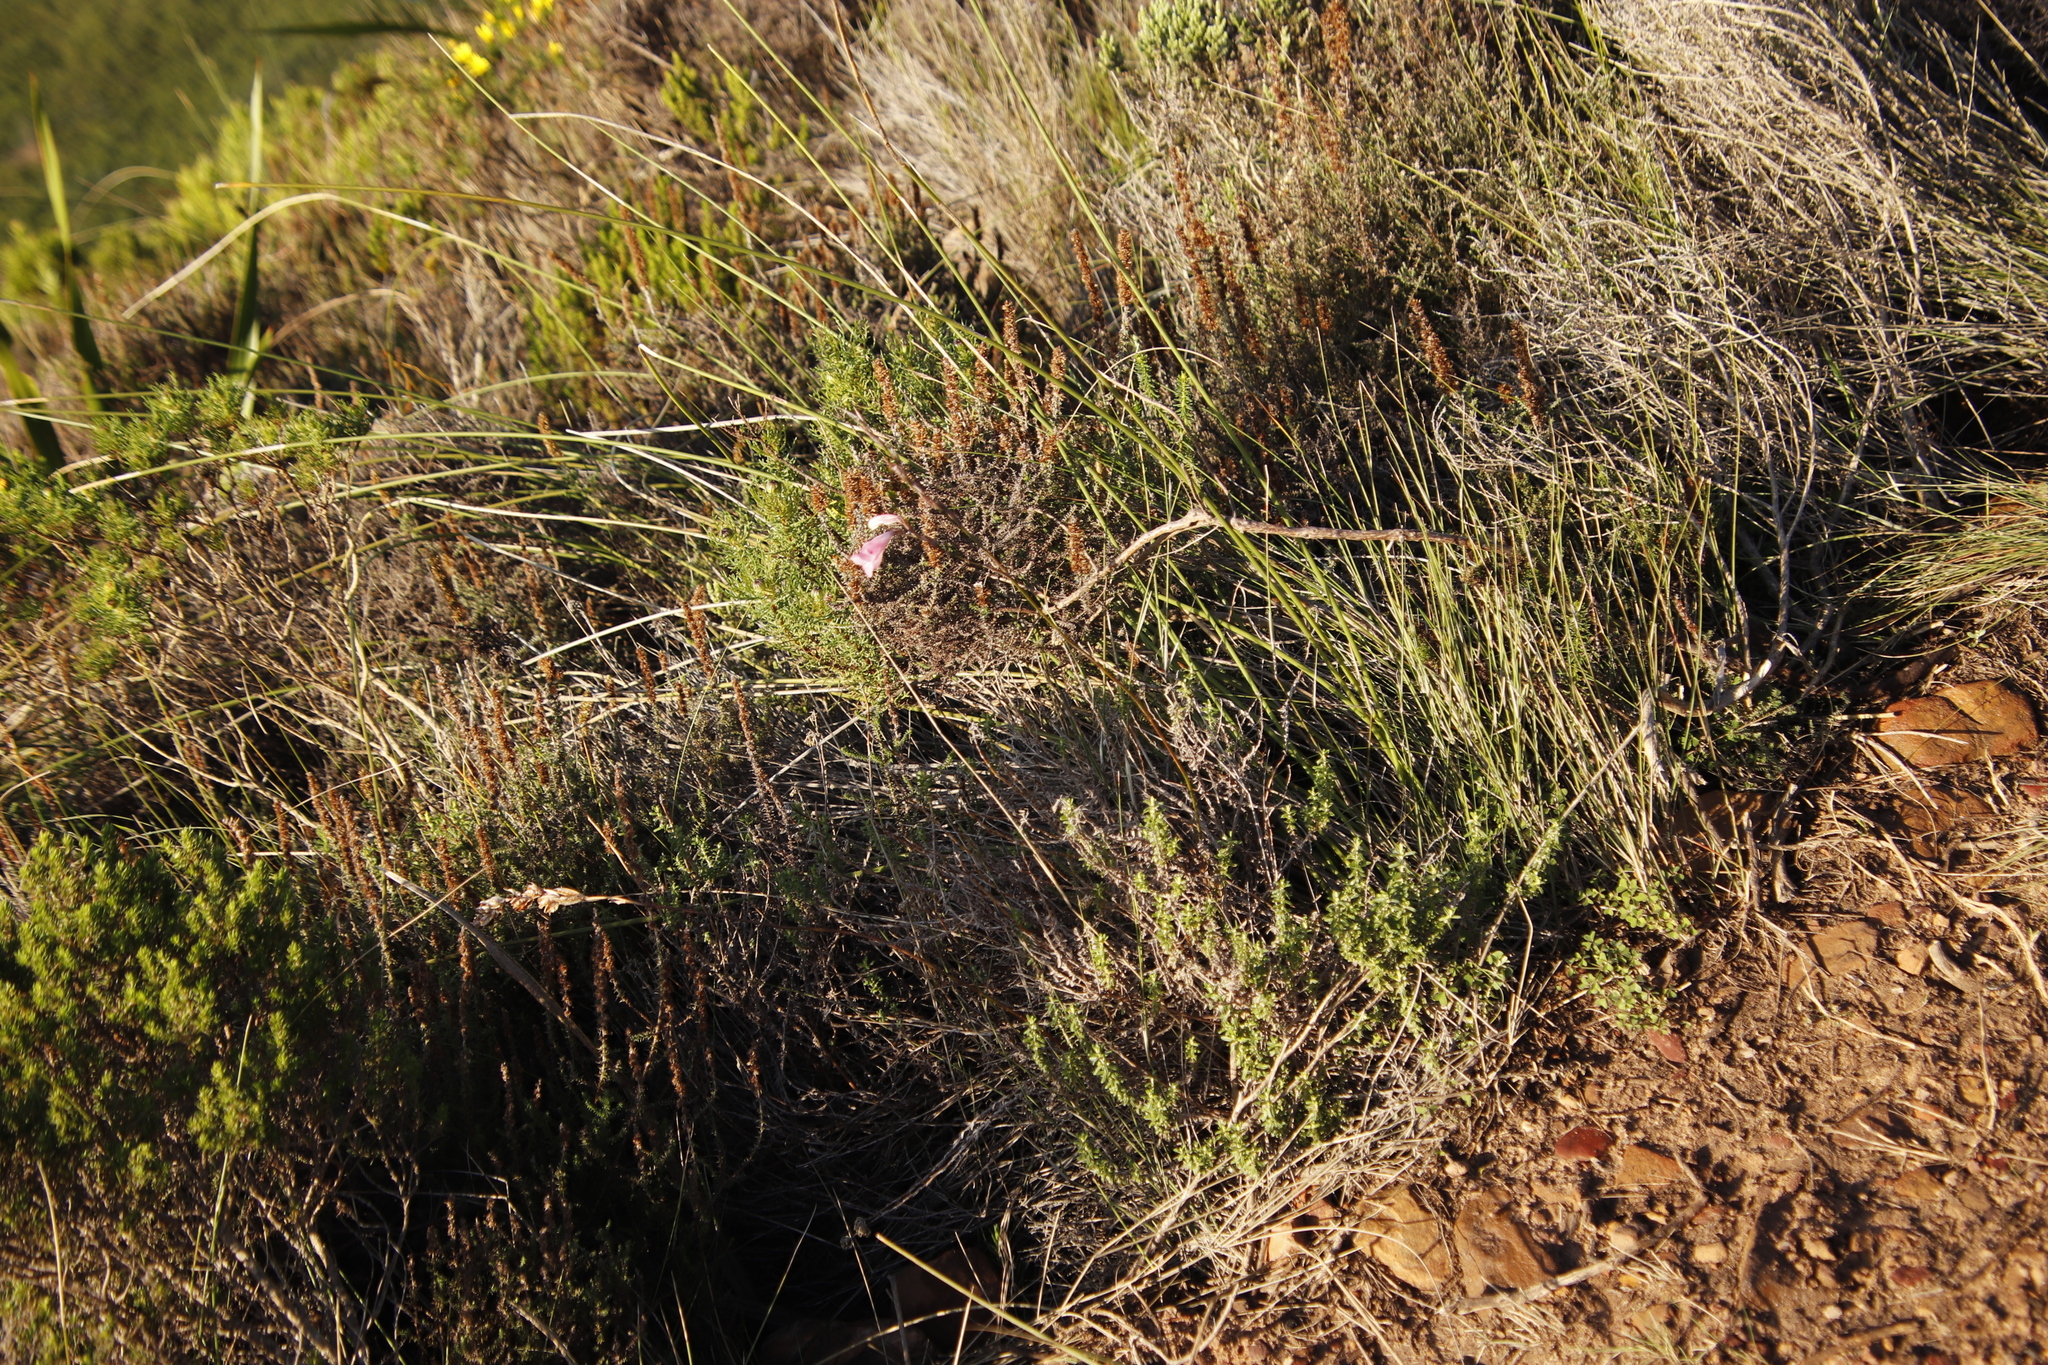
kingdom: Plantae
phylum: Tracheophyta
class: Liliopsida
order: Asparagales
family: Iridaceae
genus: Gladiolus
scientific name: Gladiolus brevifolius
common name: March pypie
